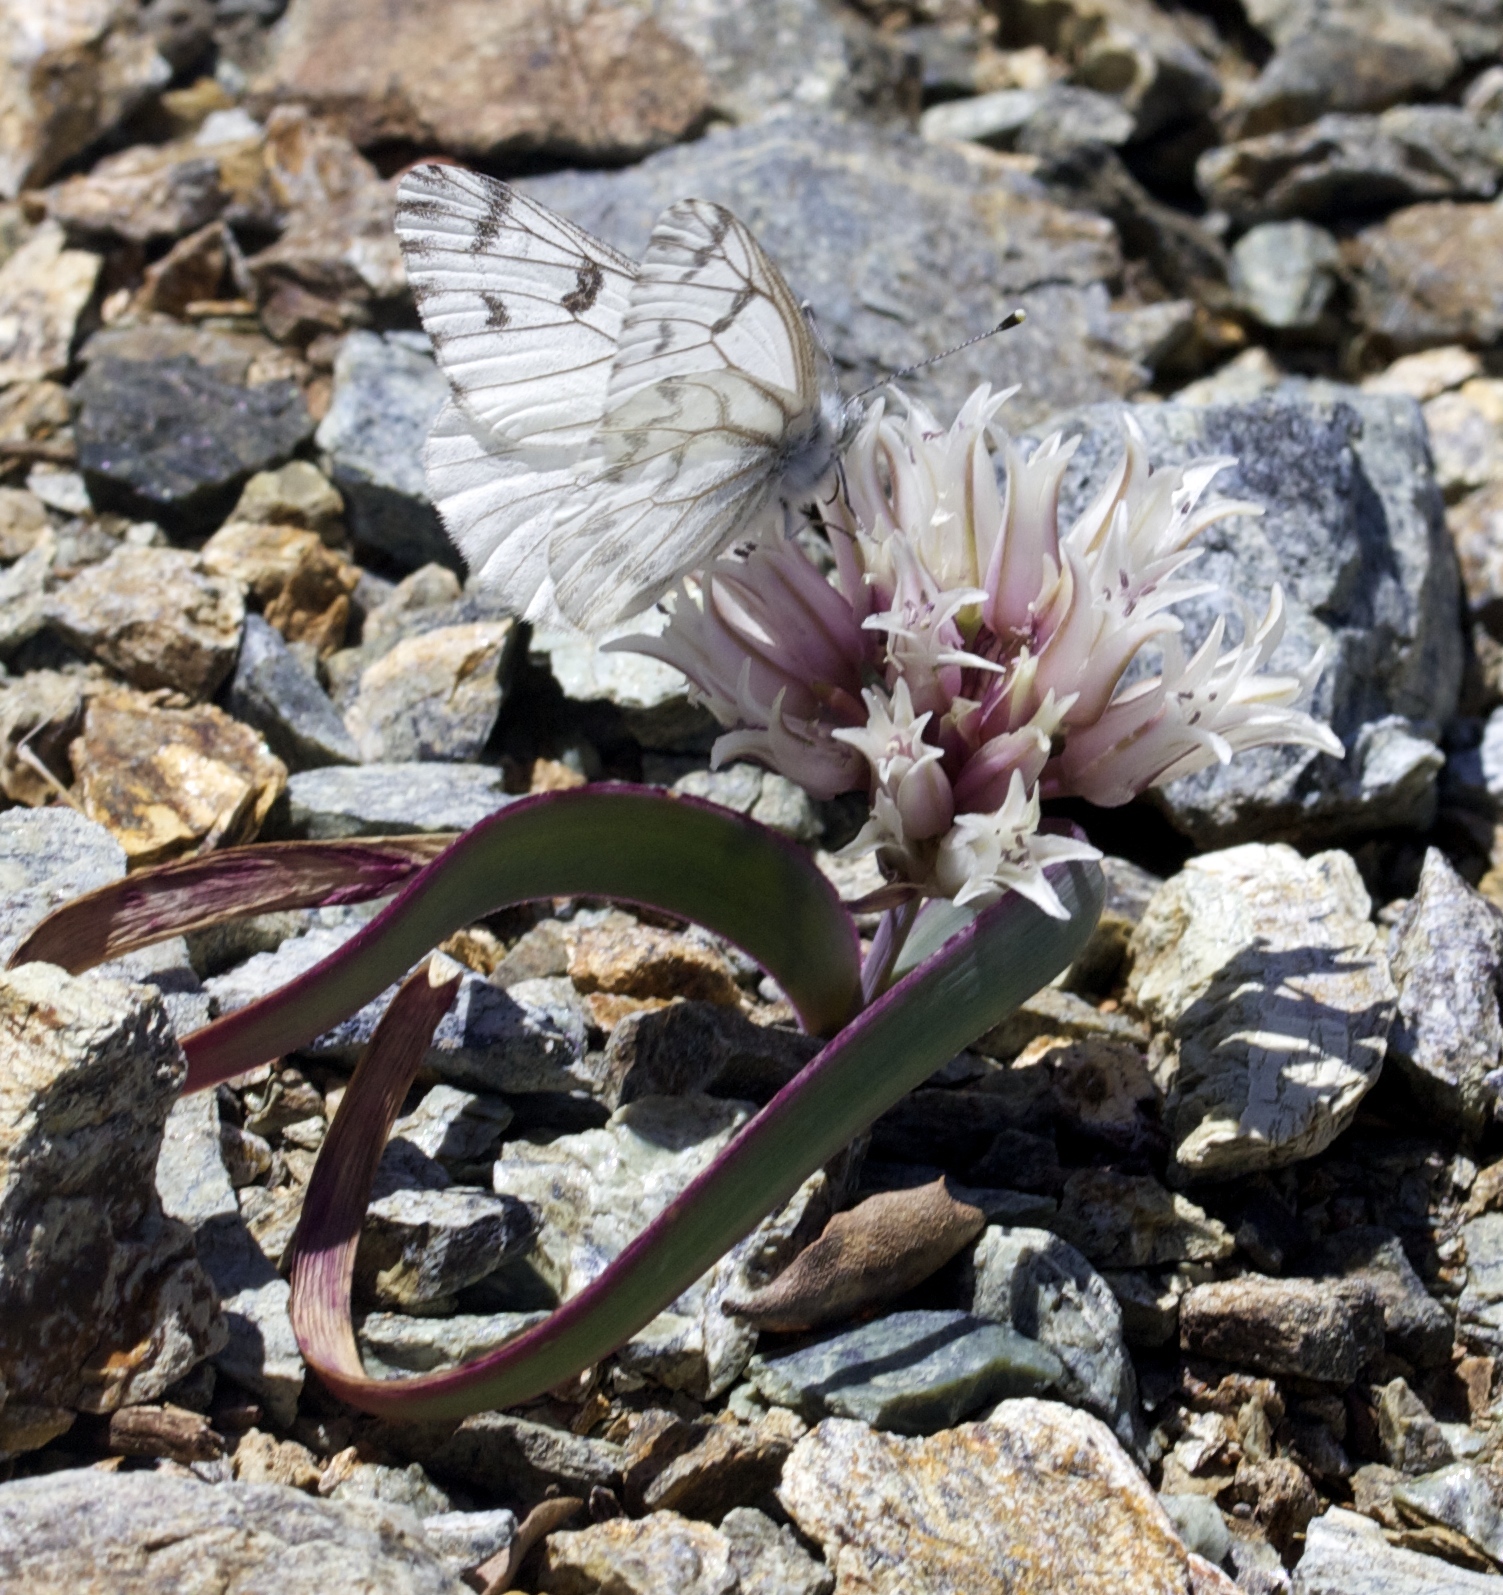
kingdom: Animalia
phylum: Arthropoda
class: Insecta
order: Lepidoptera
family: Pieridae
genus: Pontia
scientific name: Pontia sisymbrii
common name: California white
